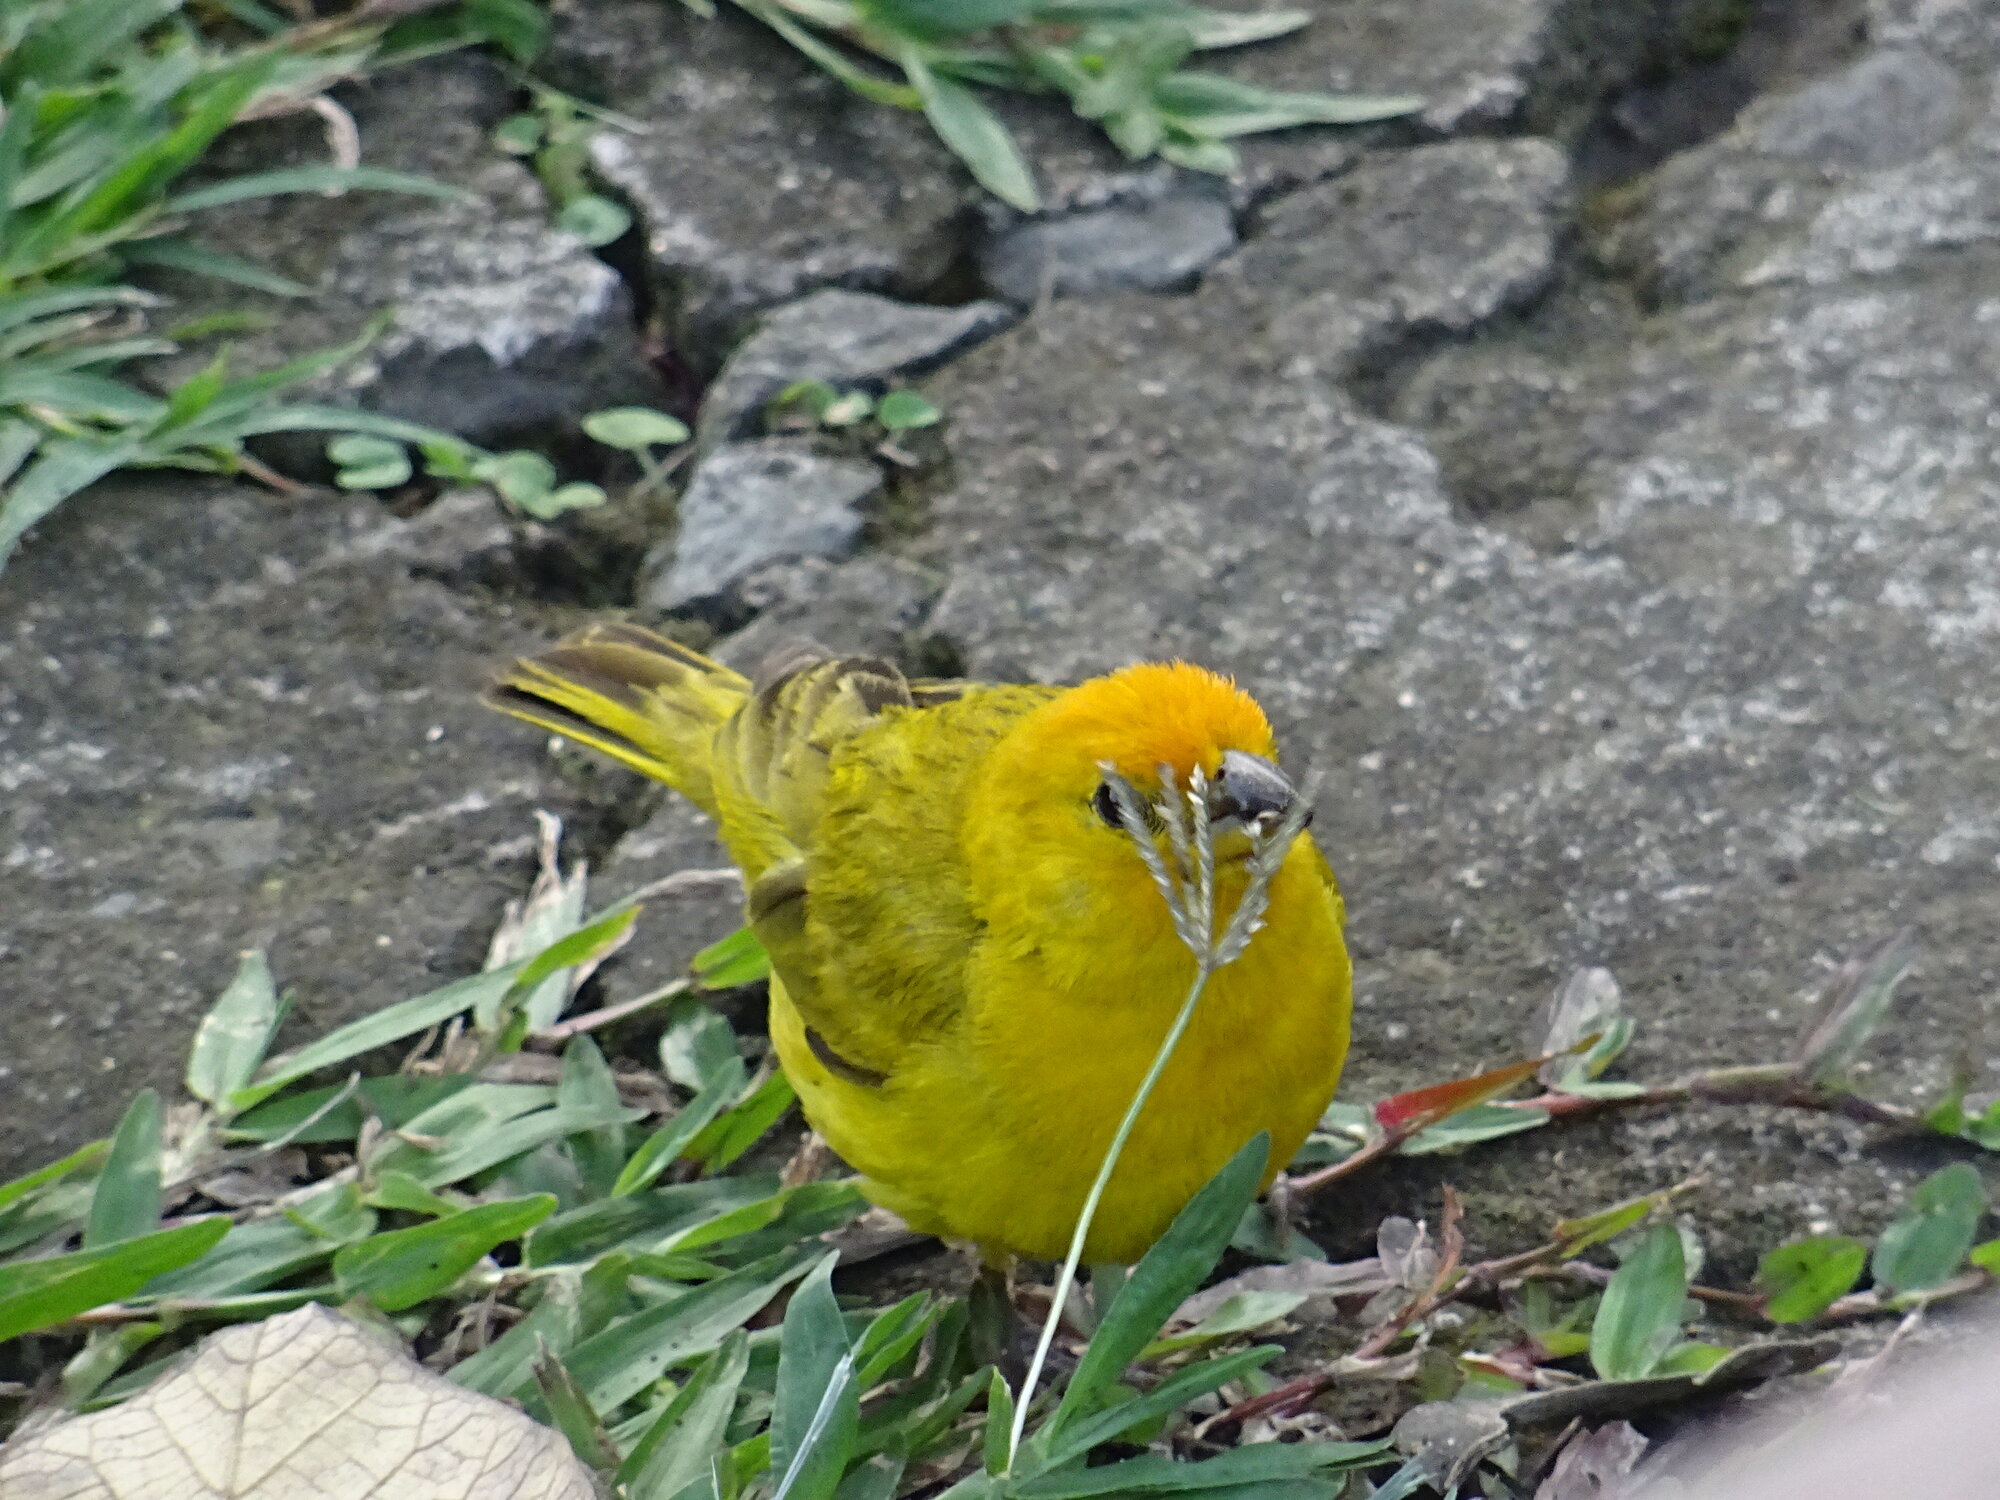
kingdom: Animalia
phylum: Chordata
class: Aves
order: Passeriformes
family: Thraupidae
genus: Sicalis
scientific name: Sicalis flaveola
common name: Saffron finch
